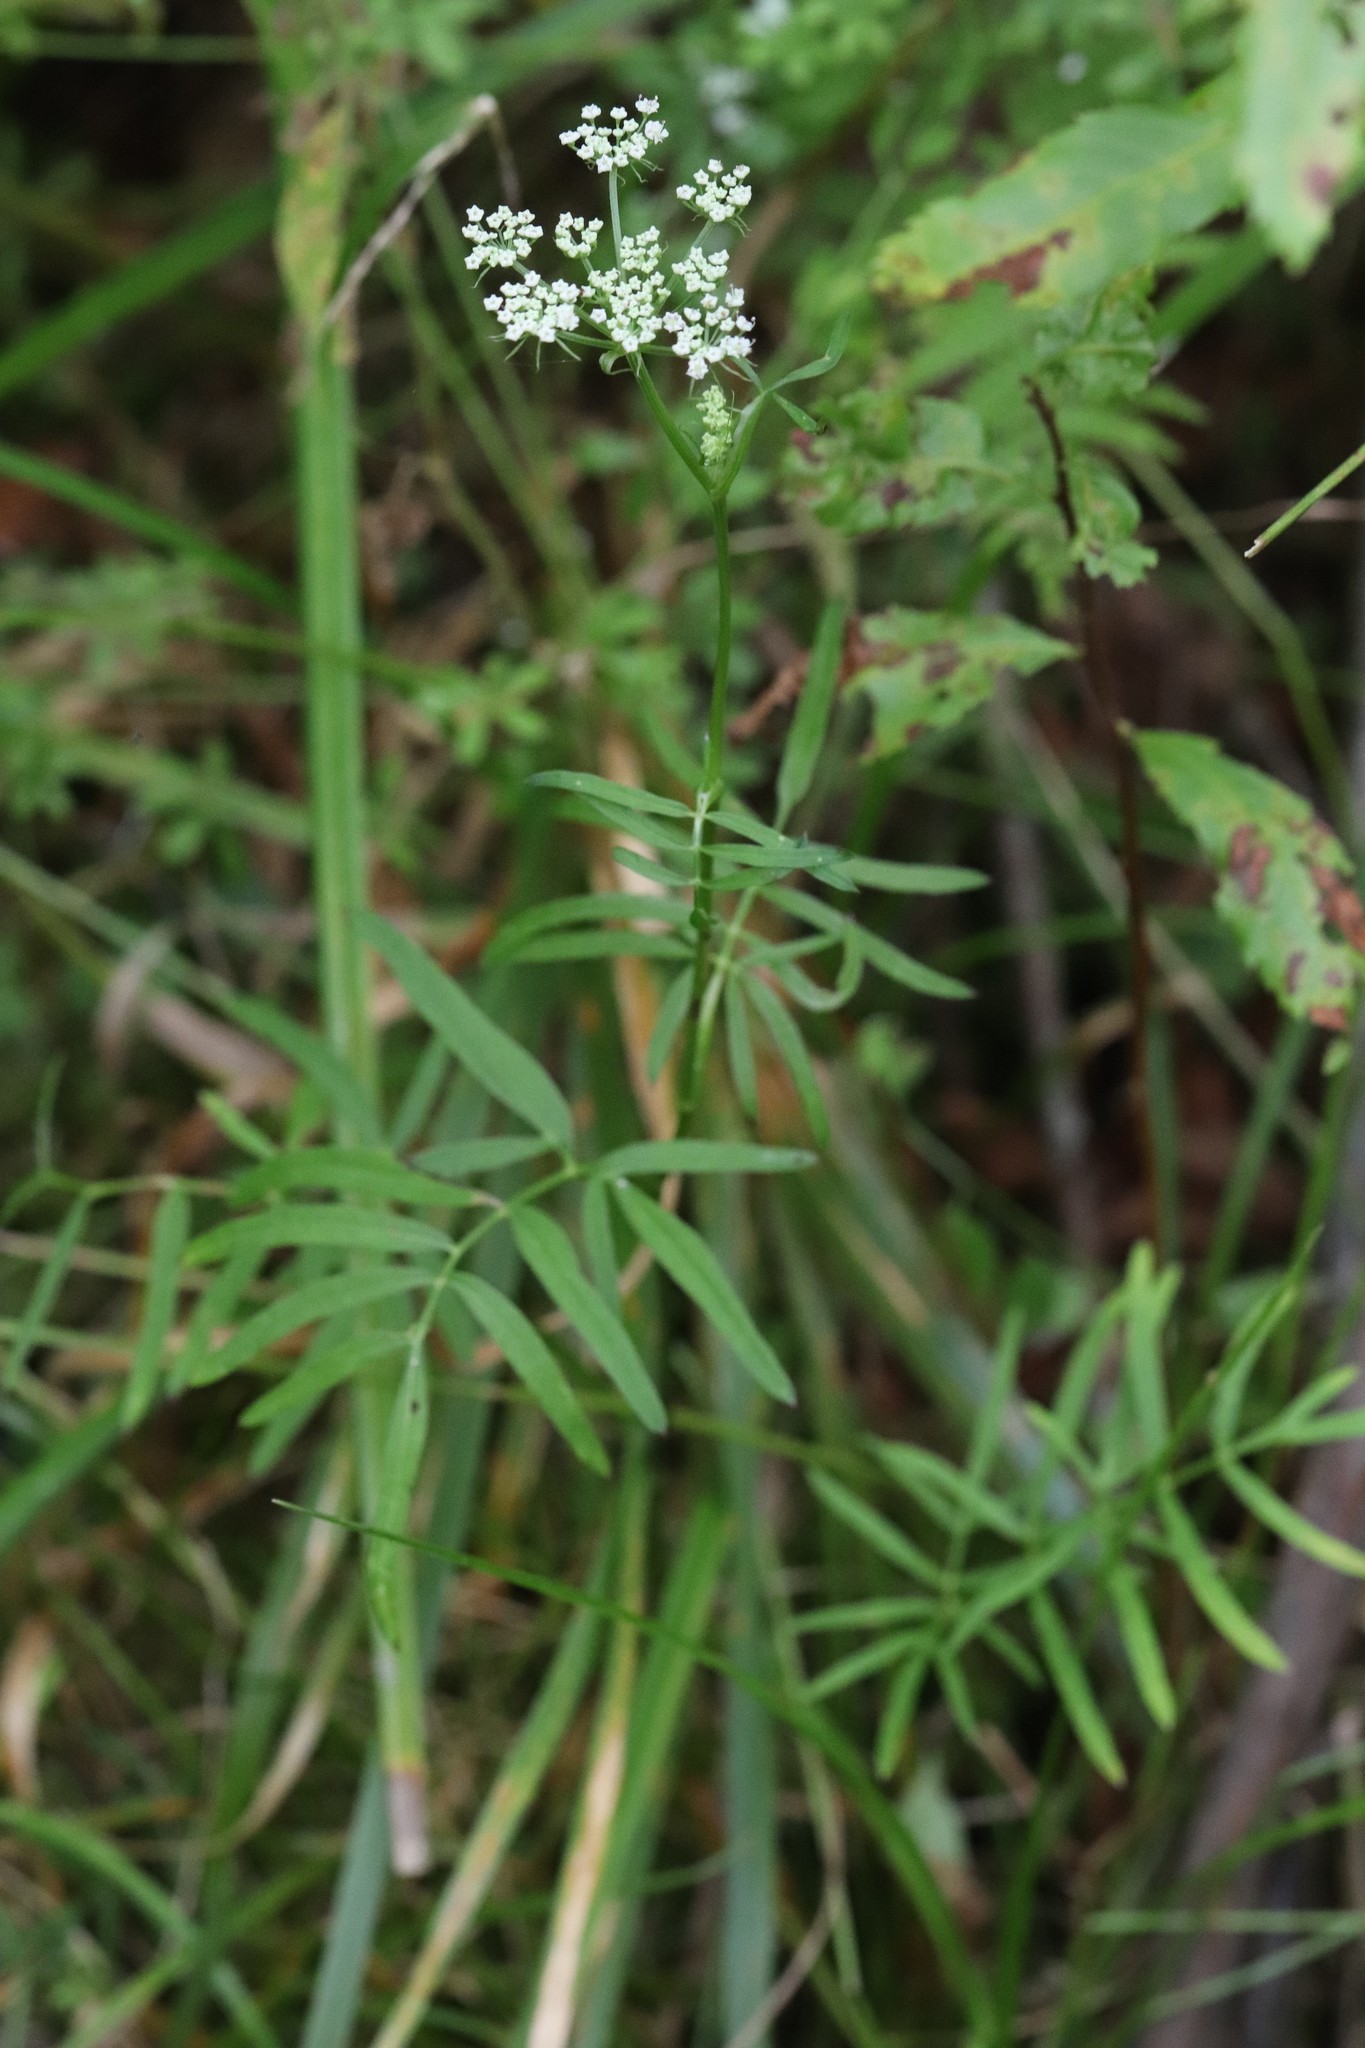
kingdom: Plantae
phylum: Tracheophyta
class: Magnoliopsida
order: Apiales
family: Apiaceae
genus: Ostericum
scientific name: Ostericum maximowiczii
